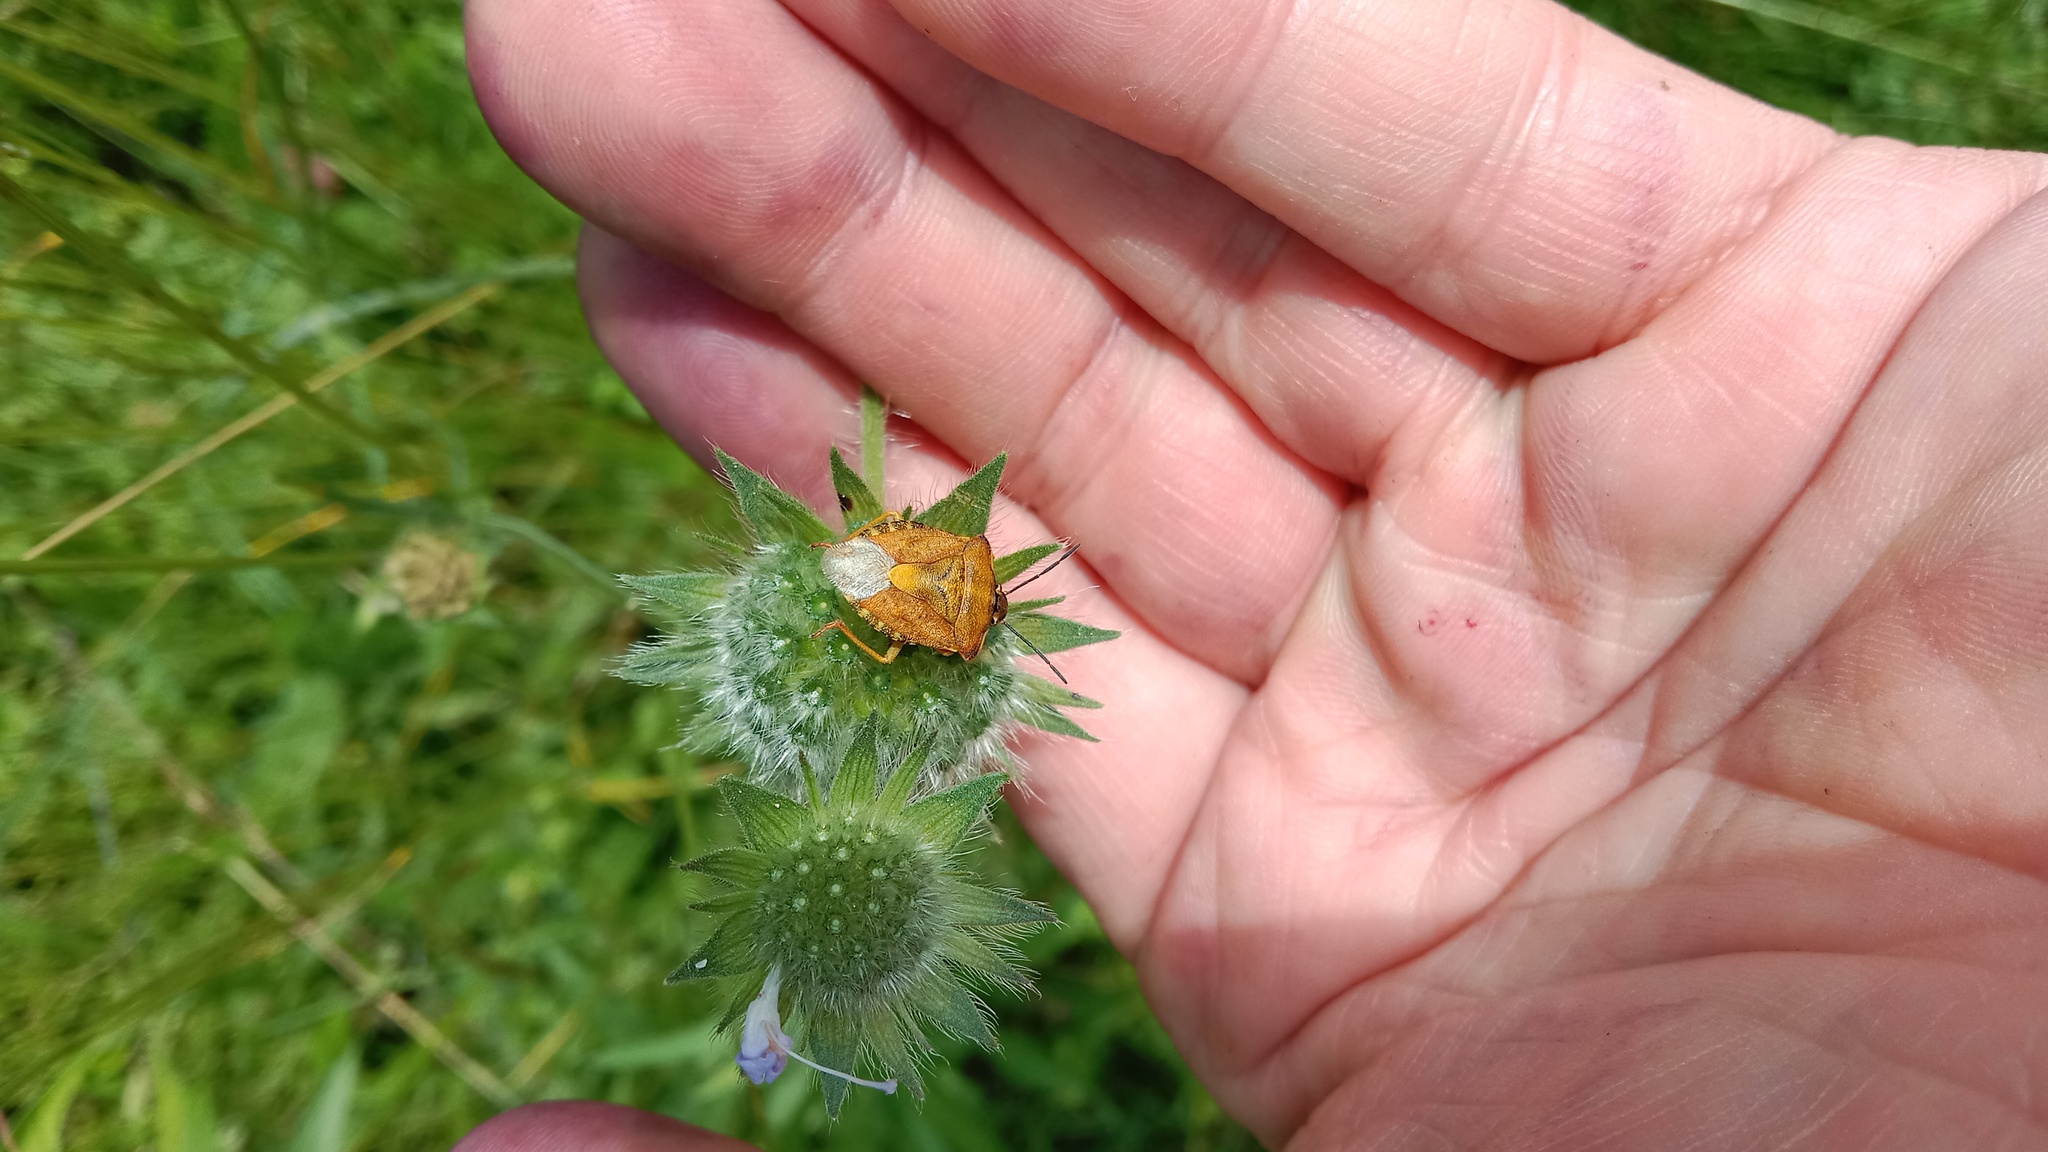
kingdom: Animalia
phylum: Arthropoda
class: Insecta
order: Hemiptera
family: Pentatomidae
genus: Carpocoris
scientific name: Carpocoris purpureipennis
